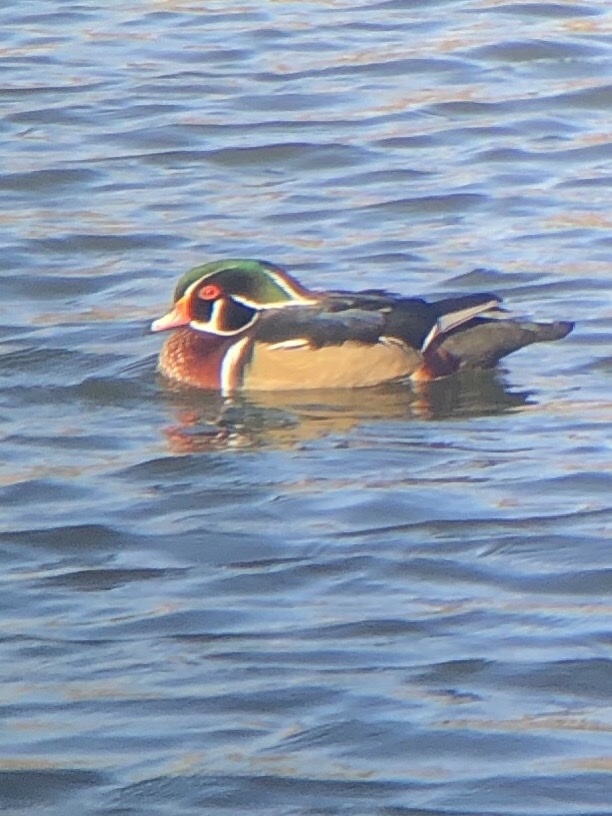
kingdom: Animalia
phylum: Chordata
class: Aves
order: Anseriformes
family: Anatidae
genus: Aix
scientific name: Aix sponsa
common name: Wood duck
